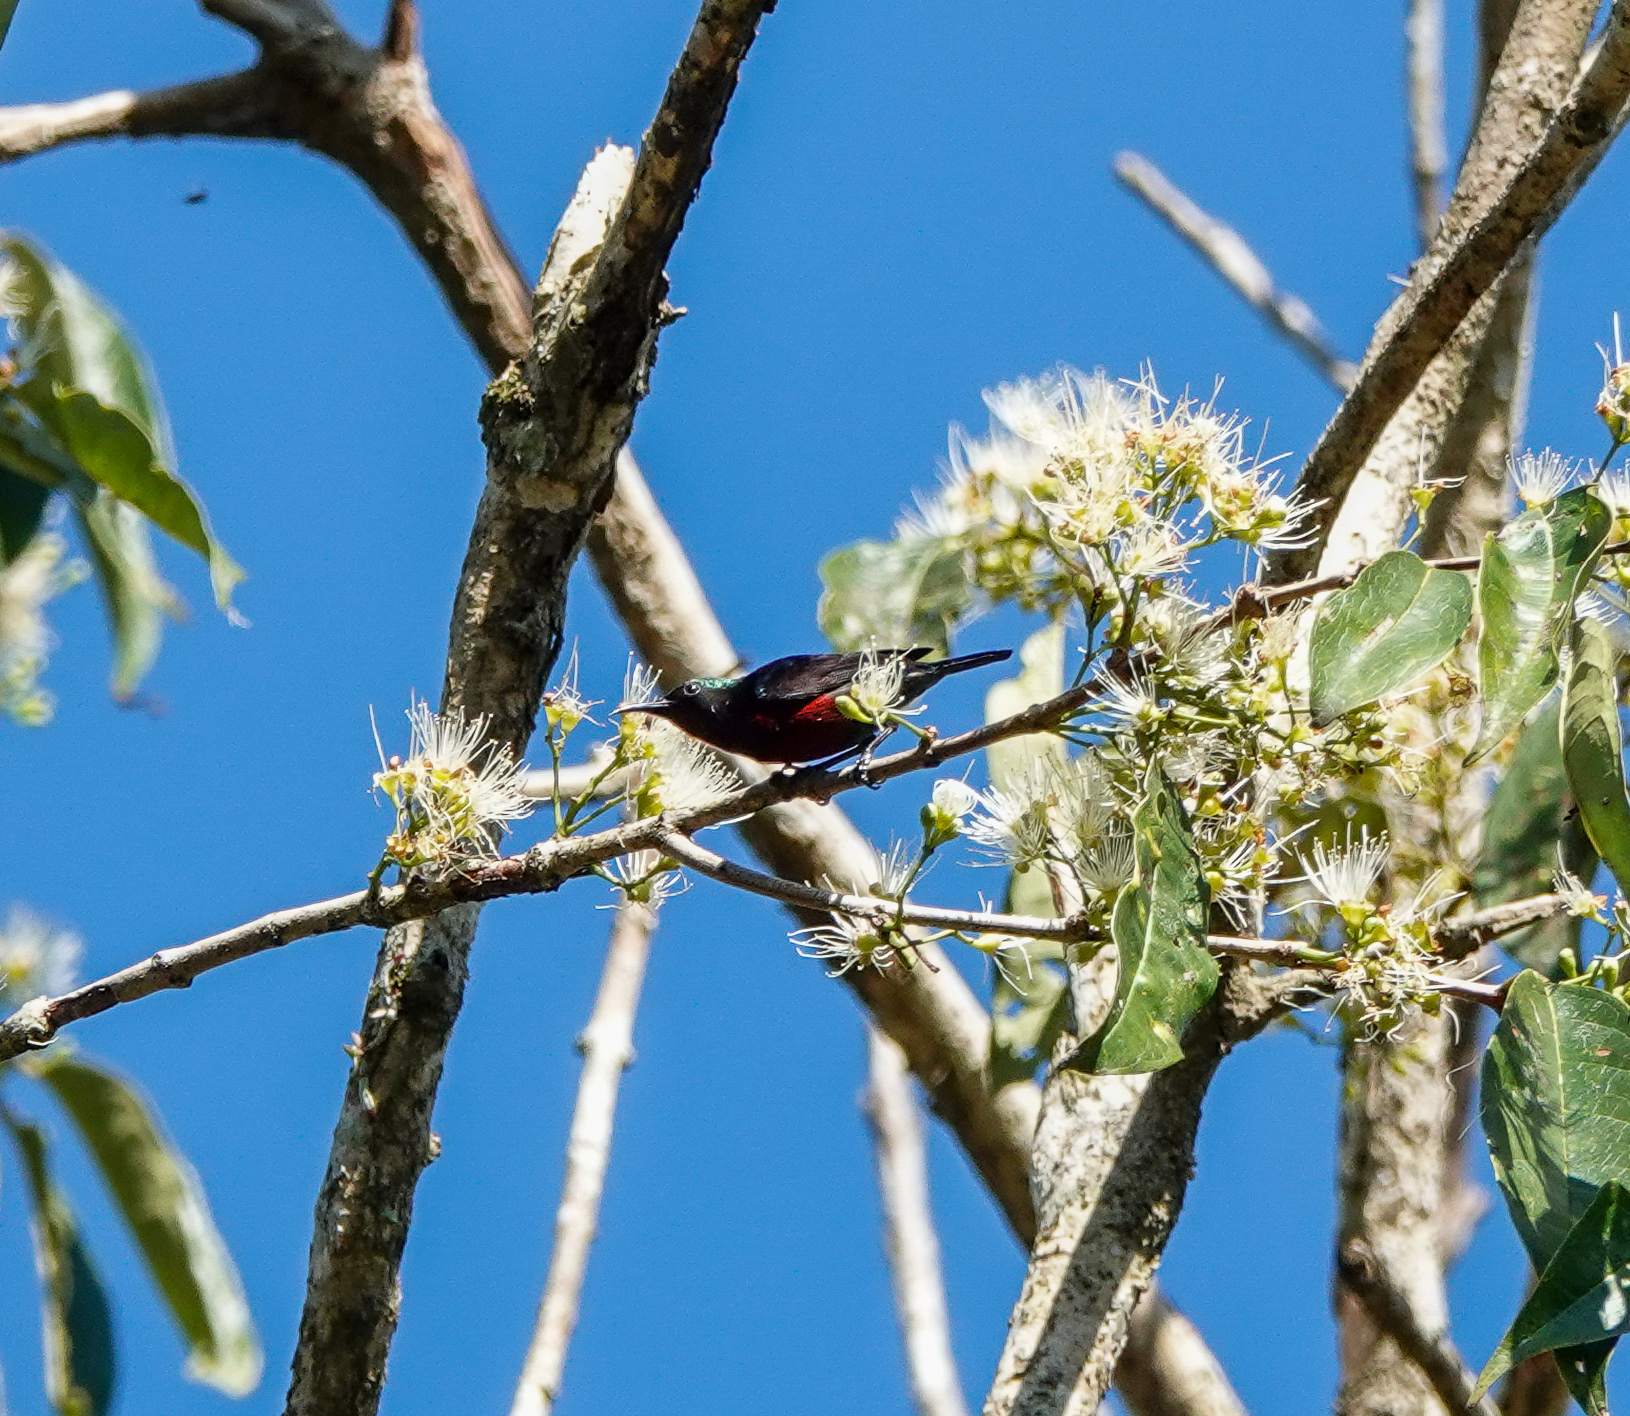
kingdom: Animalia
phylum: Chordata
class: Aves
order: Passeriformes
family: Nectariniidae
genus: Leptocoma
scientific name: Leptocoma brasiliana
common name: Van hasselt's sunbird
